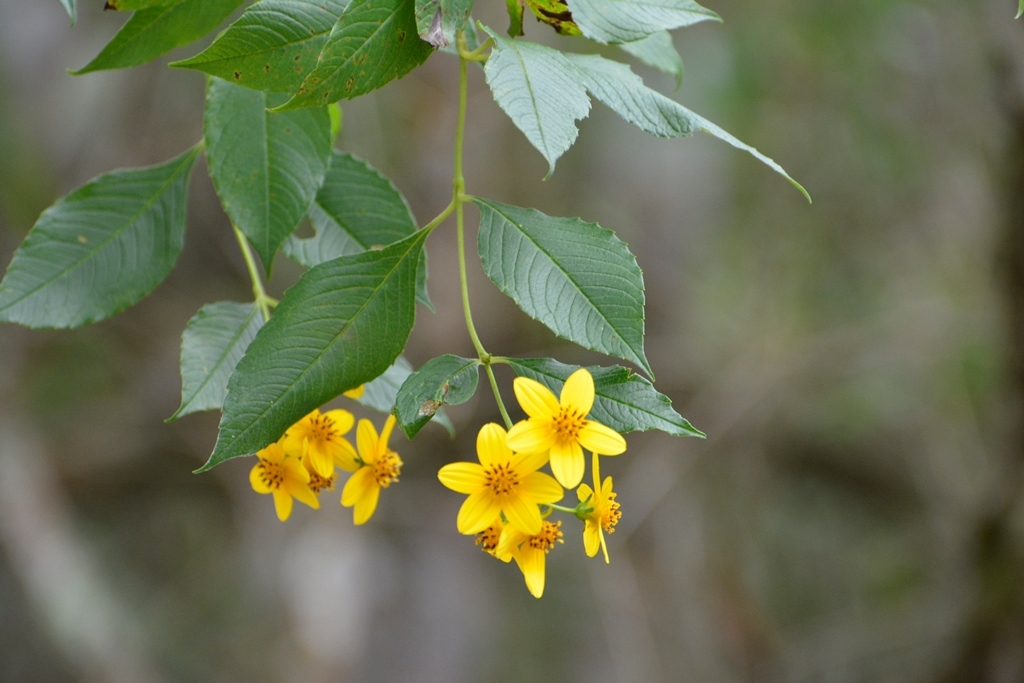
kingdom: Plantae
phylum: Tracheophyta
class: Magnoliopsida
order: Asterales
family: Asteraceae
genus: Electranthera
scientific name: Electranthera mutica
